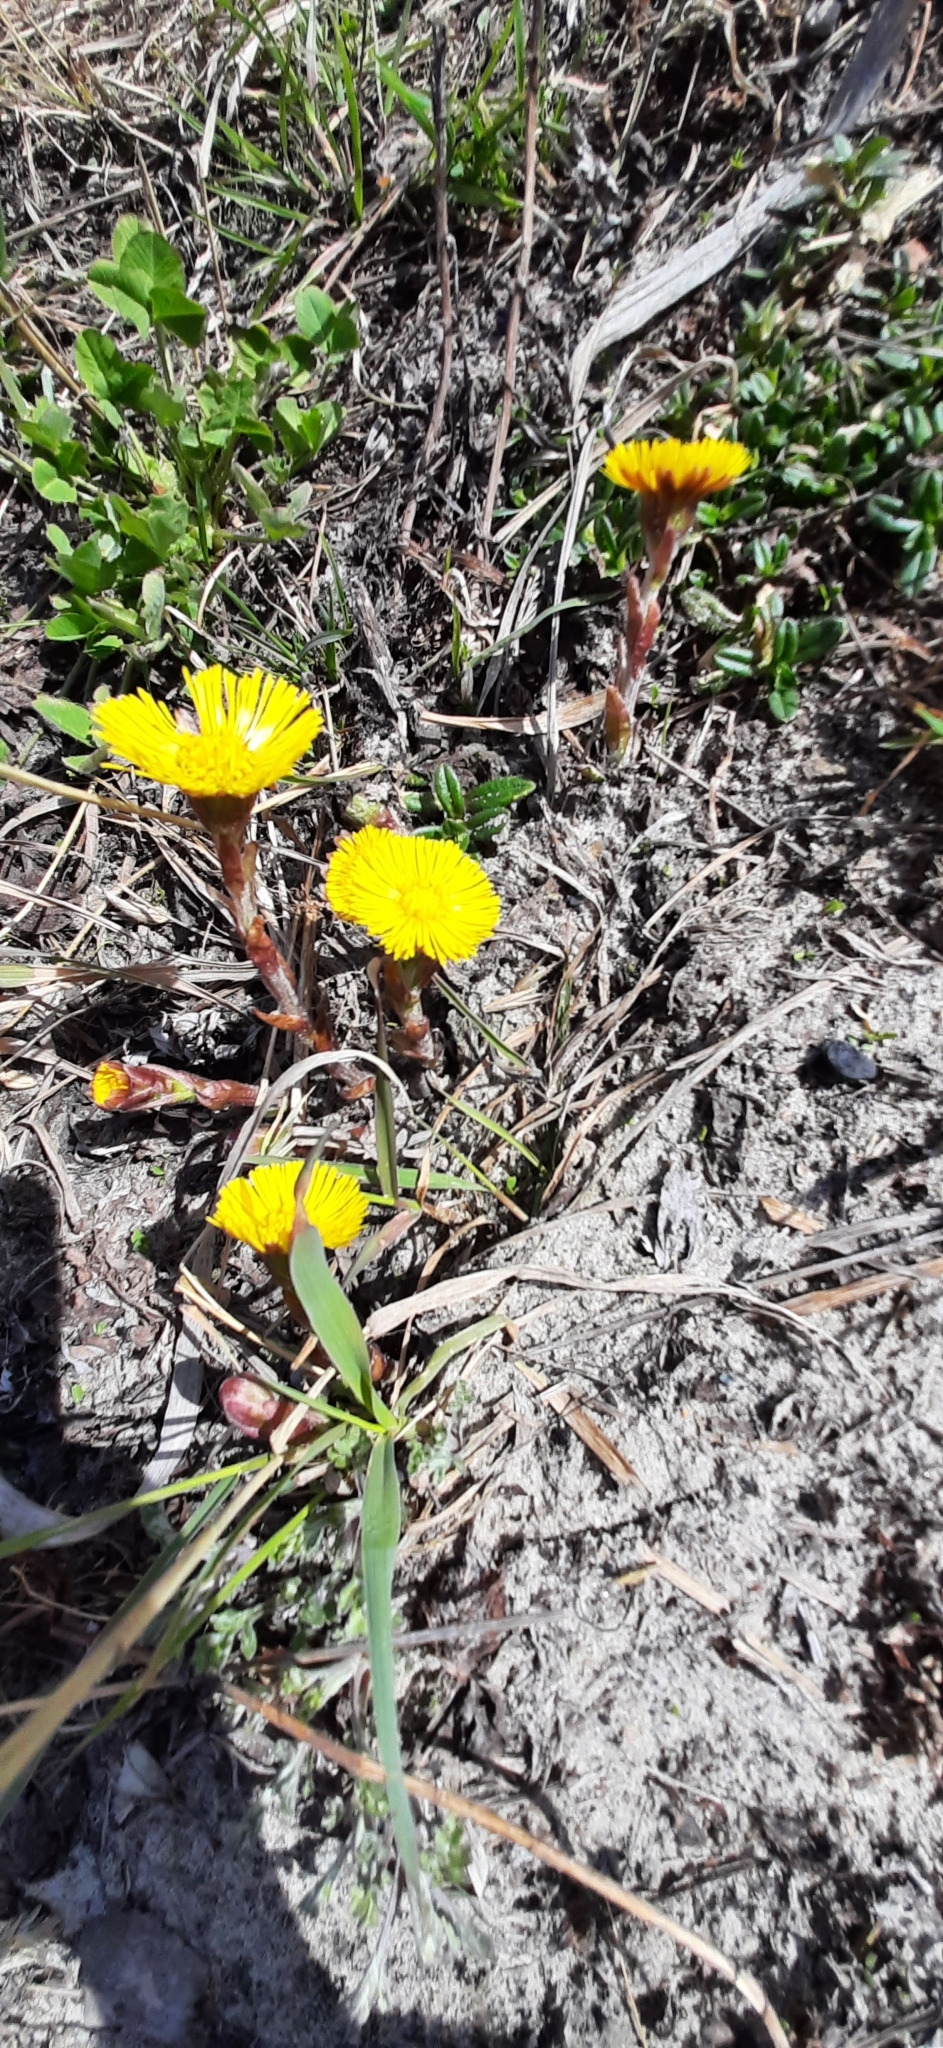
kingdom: Plantae
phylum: Tracheophyta
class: Magnoliopsida
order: Asterales
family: Asteraceae
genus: Tussilago
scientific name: Tussilago farfara
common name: Coltsfoot
